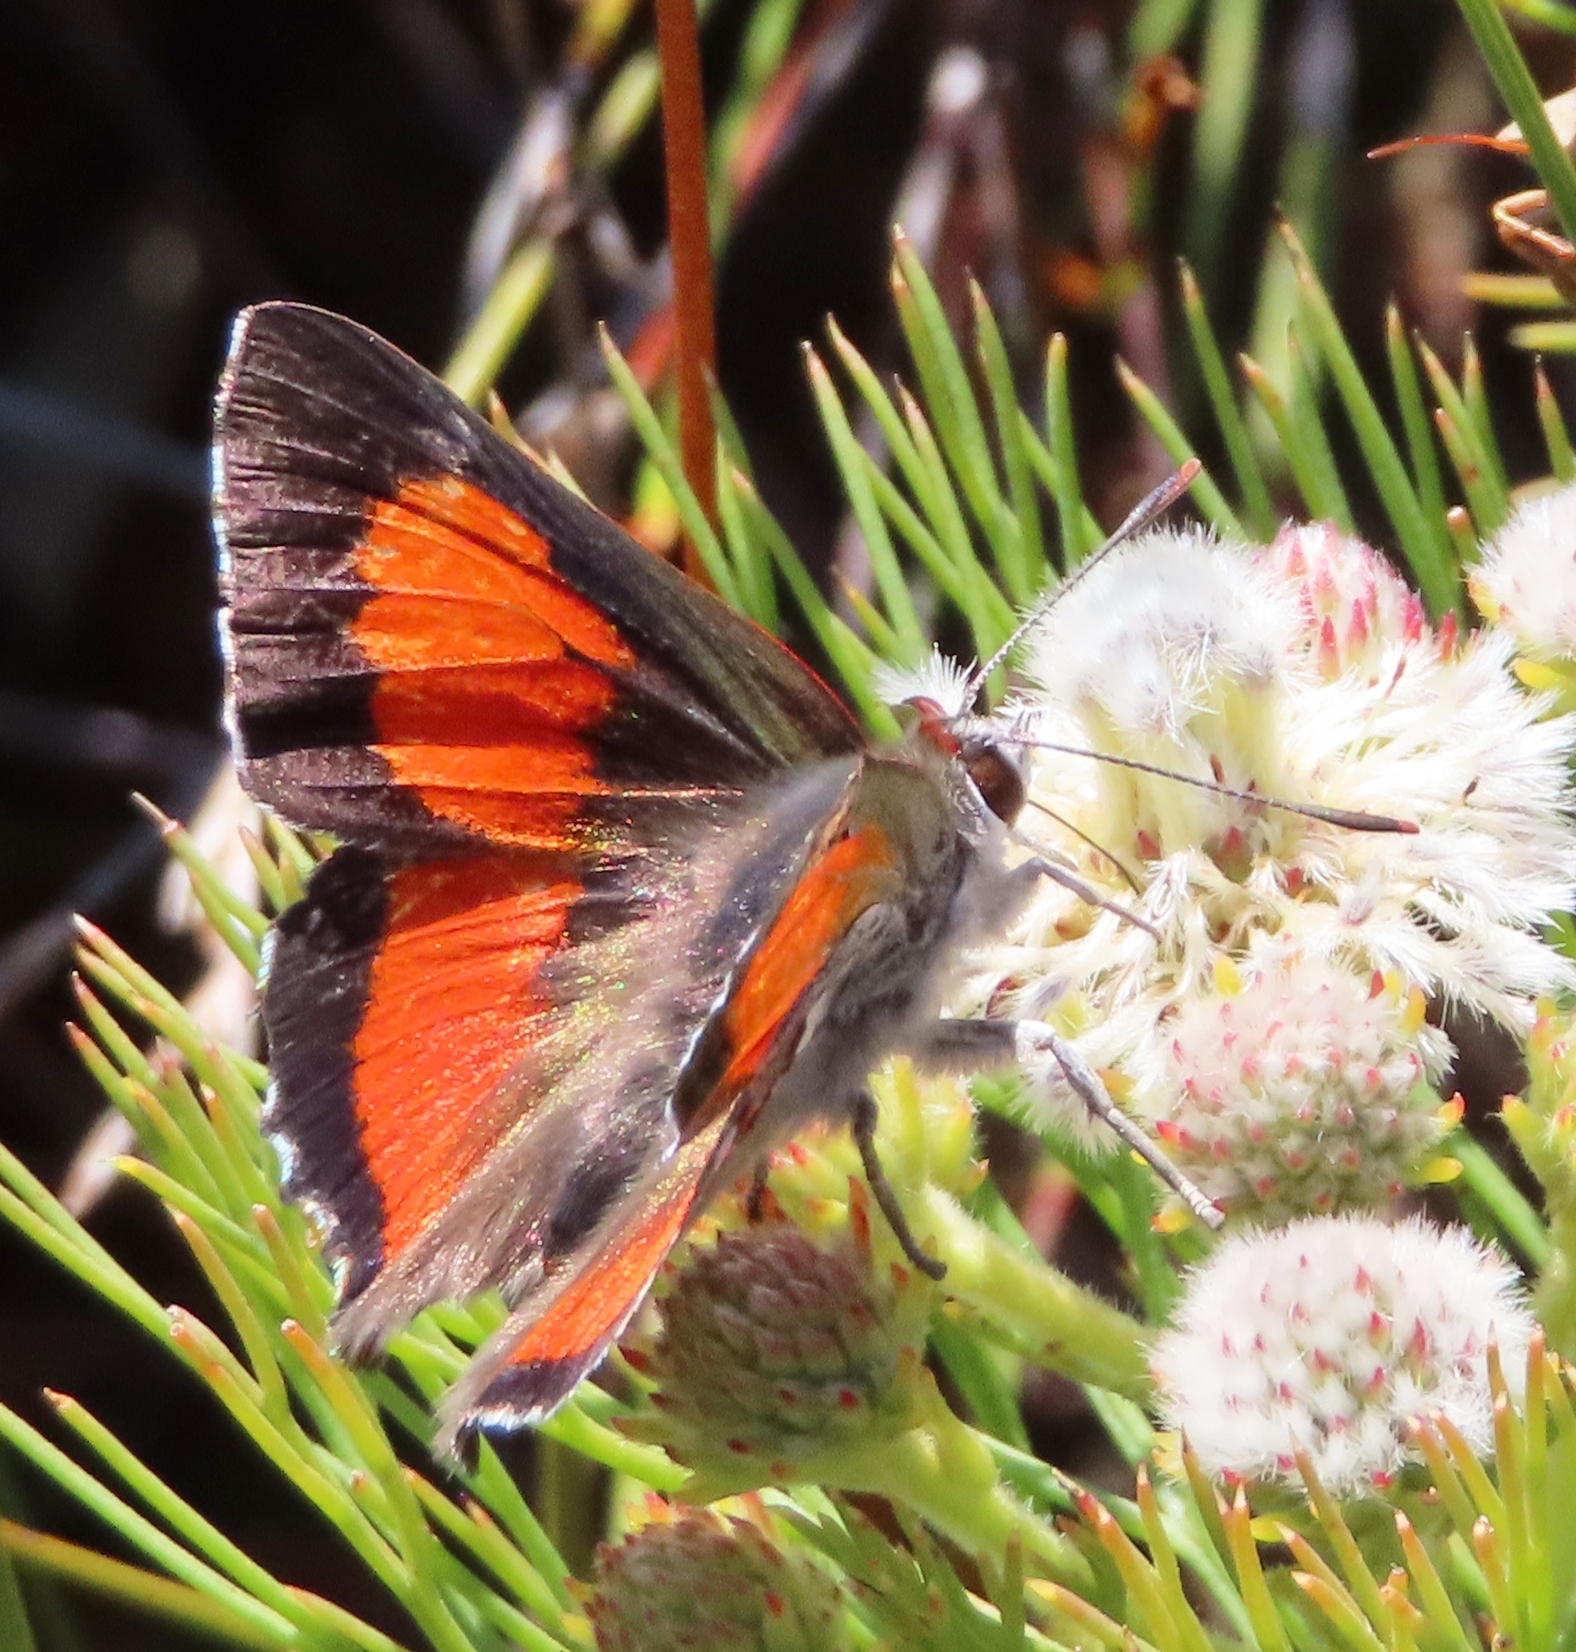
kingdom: Animalia
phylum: Arthropoda
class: Insecta
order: Lepidoptera
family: Lycaenidae
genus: Capys
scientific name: Capys alpheus
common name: Orange-banded protea butterfly
